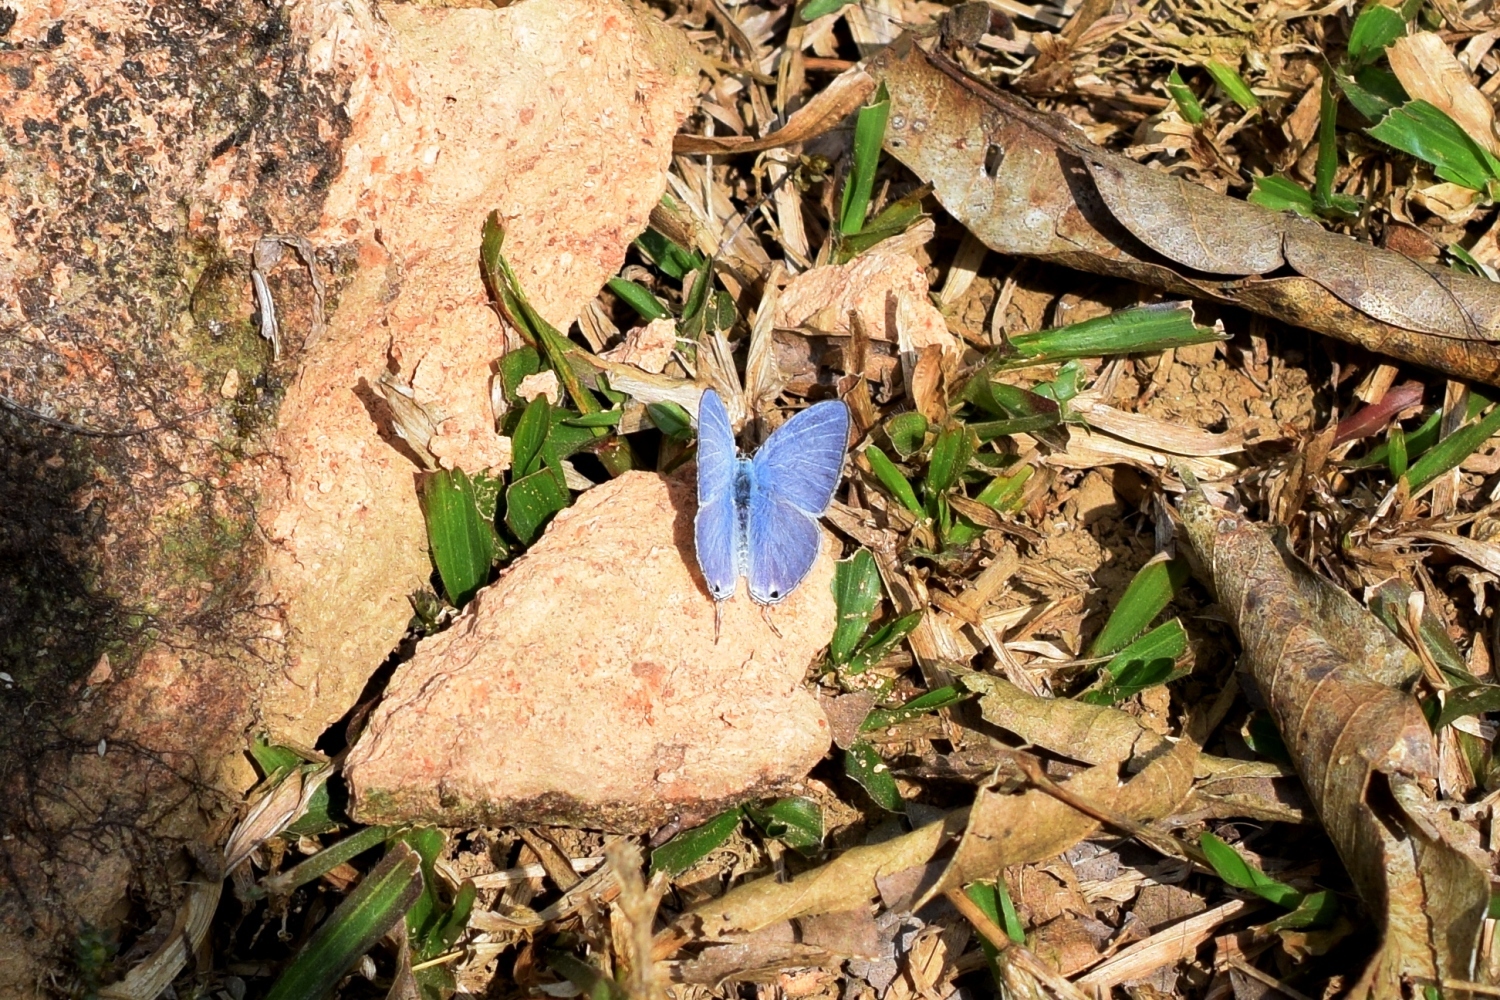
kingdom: Animalia
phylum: Arthropoda
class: Insecta
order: Lepidoptera
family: Lycaenidae
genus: Catochrysops
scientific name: Catochrysops panormus
